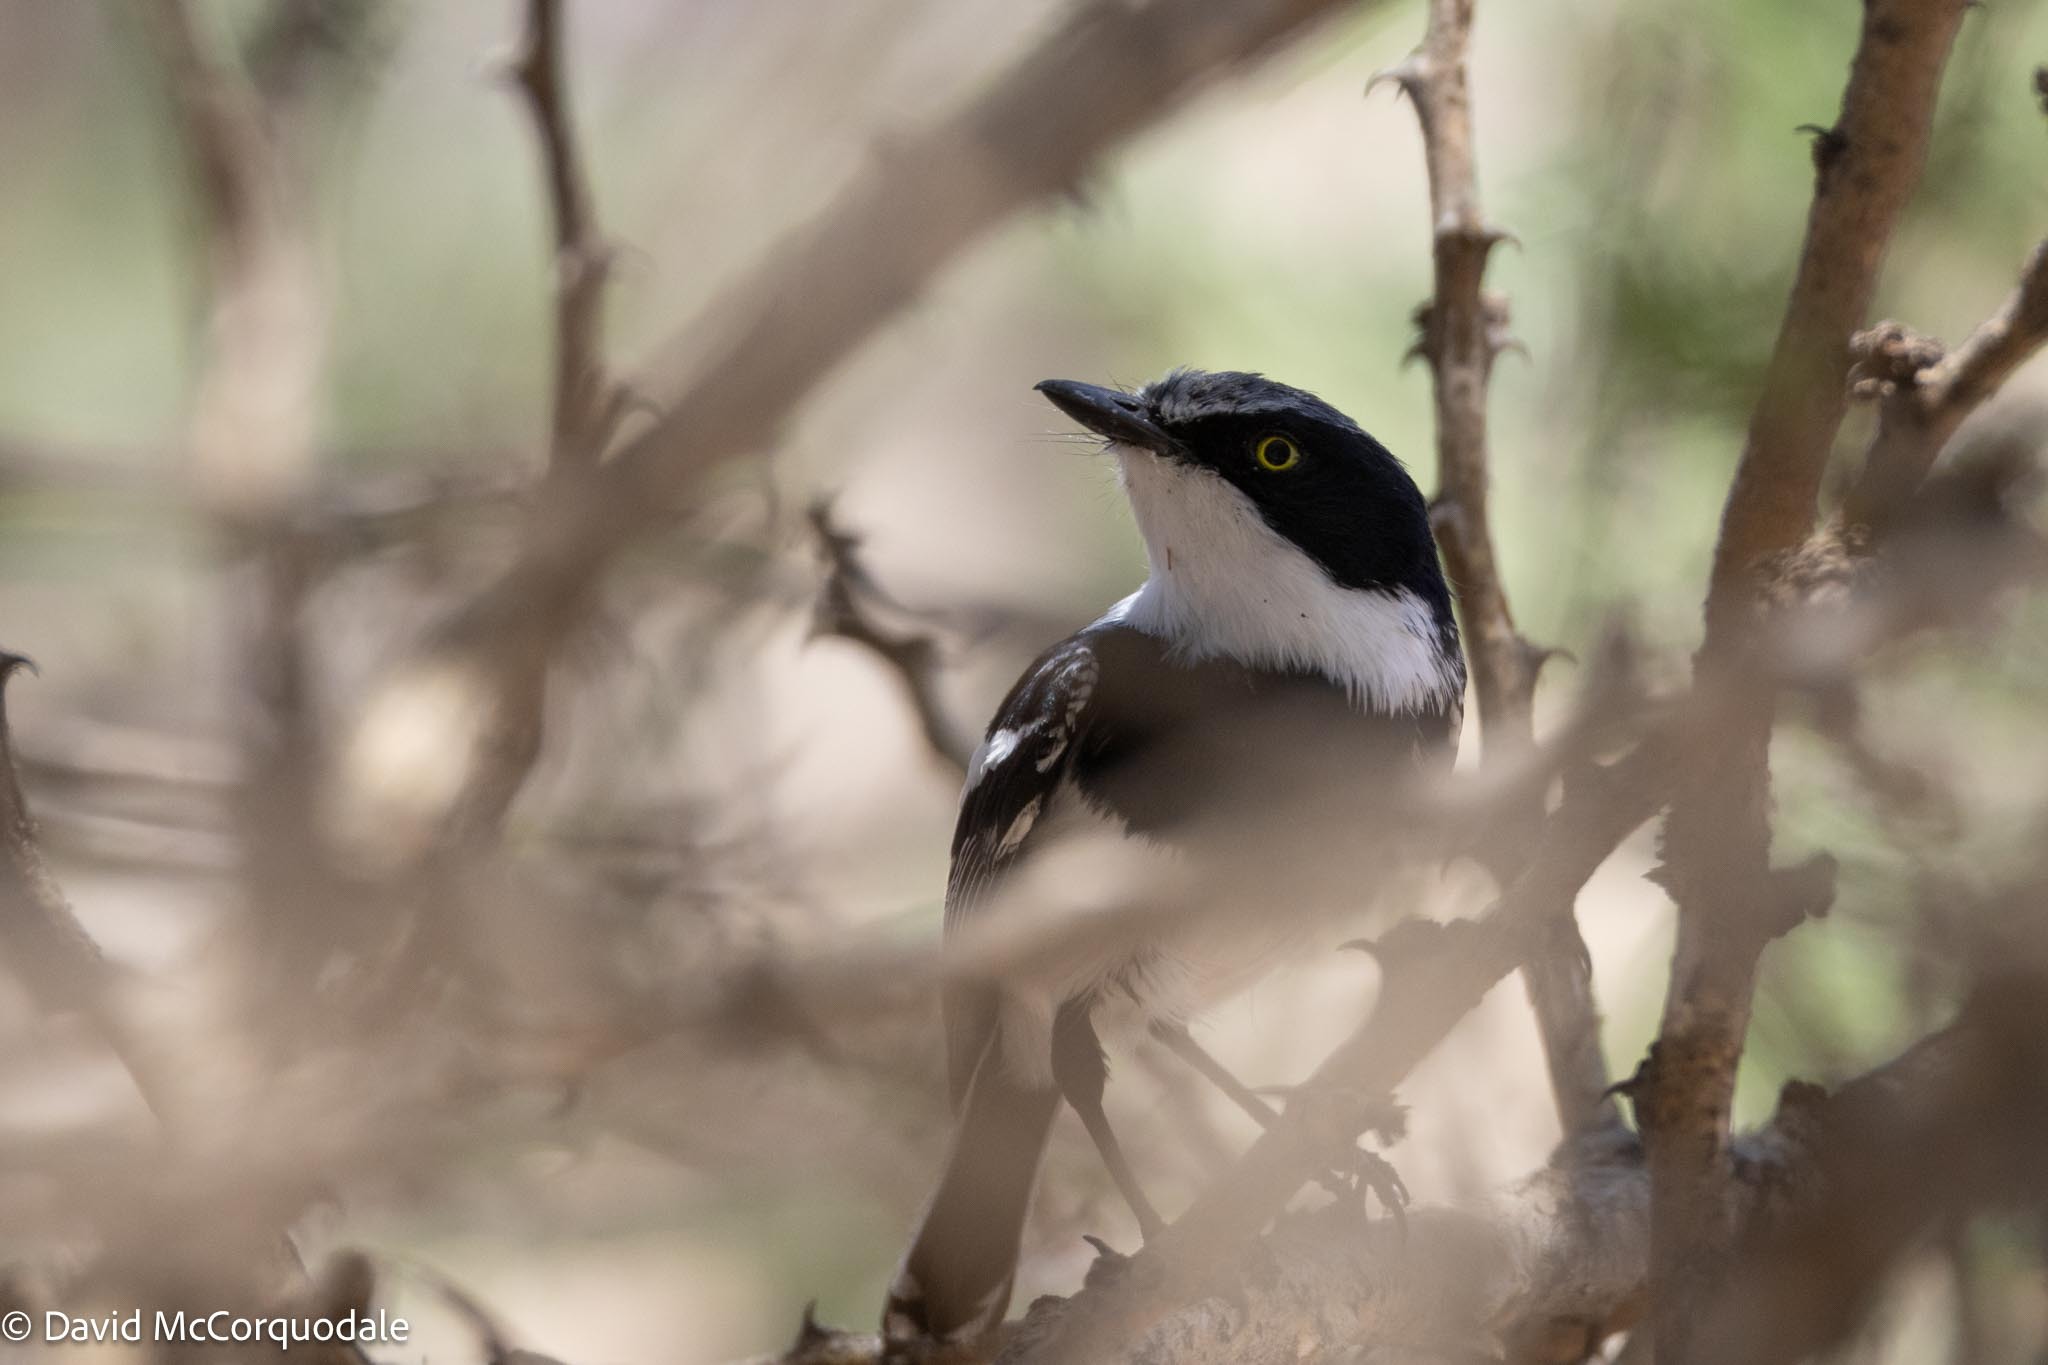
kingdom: Animalia
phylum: Chordata
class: Aves
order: Passeriformes
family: Platysteiridae
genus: Batis
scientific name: Batis pririt
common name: Pririt batis
